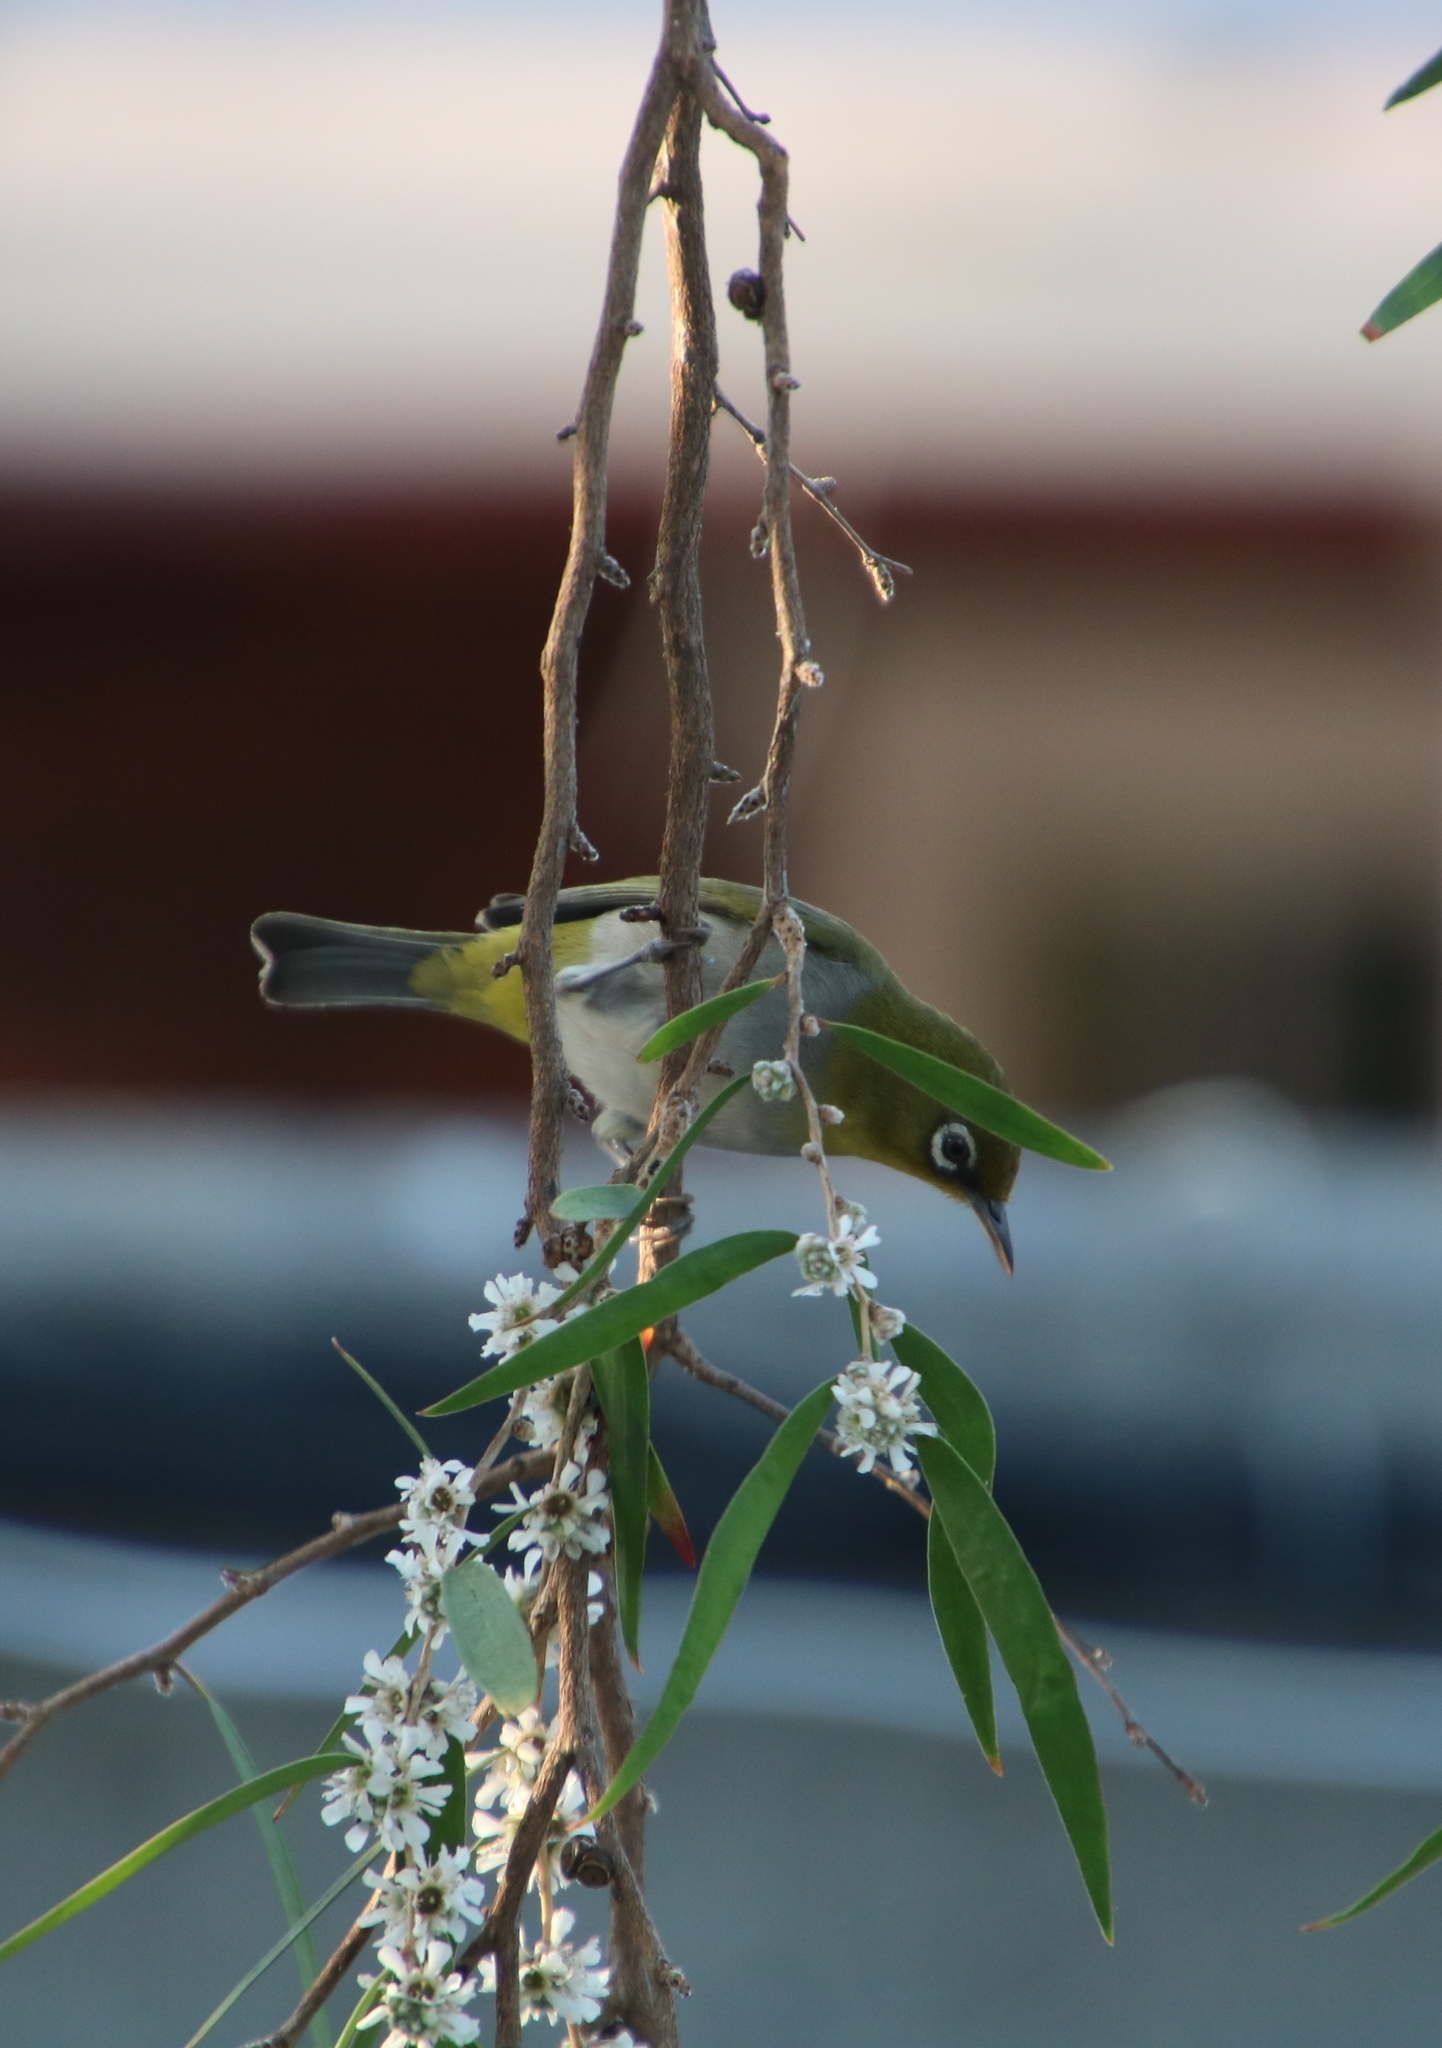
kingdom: Animalia
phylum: Chordata
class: Aves
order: Passeriformes
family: Zosteropidae
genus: Zosterops
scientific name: Zosterops virens
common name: Cape white-eye
